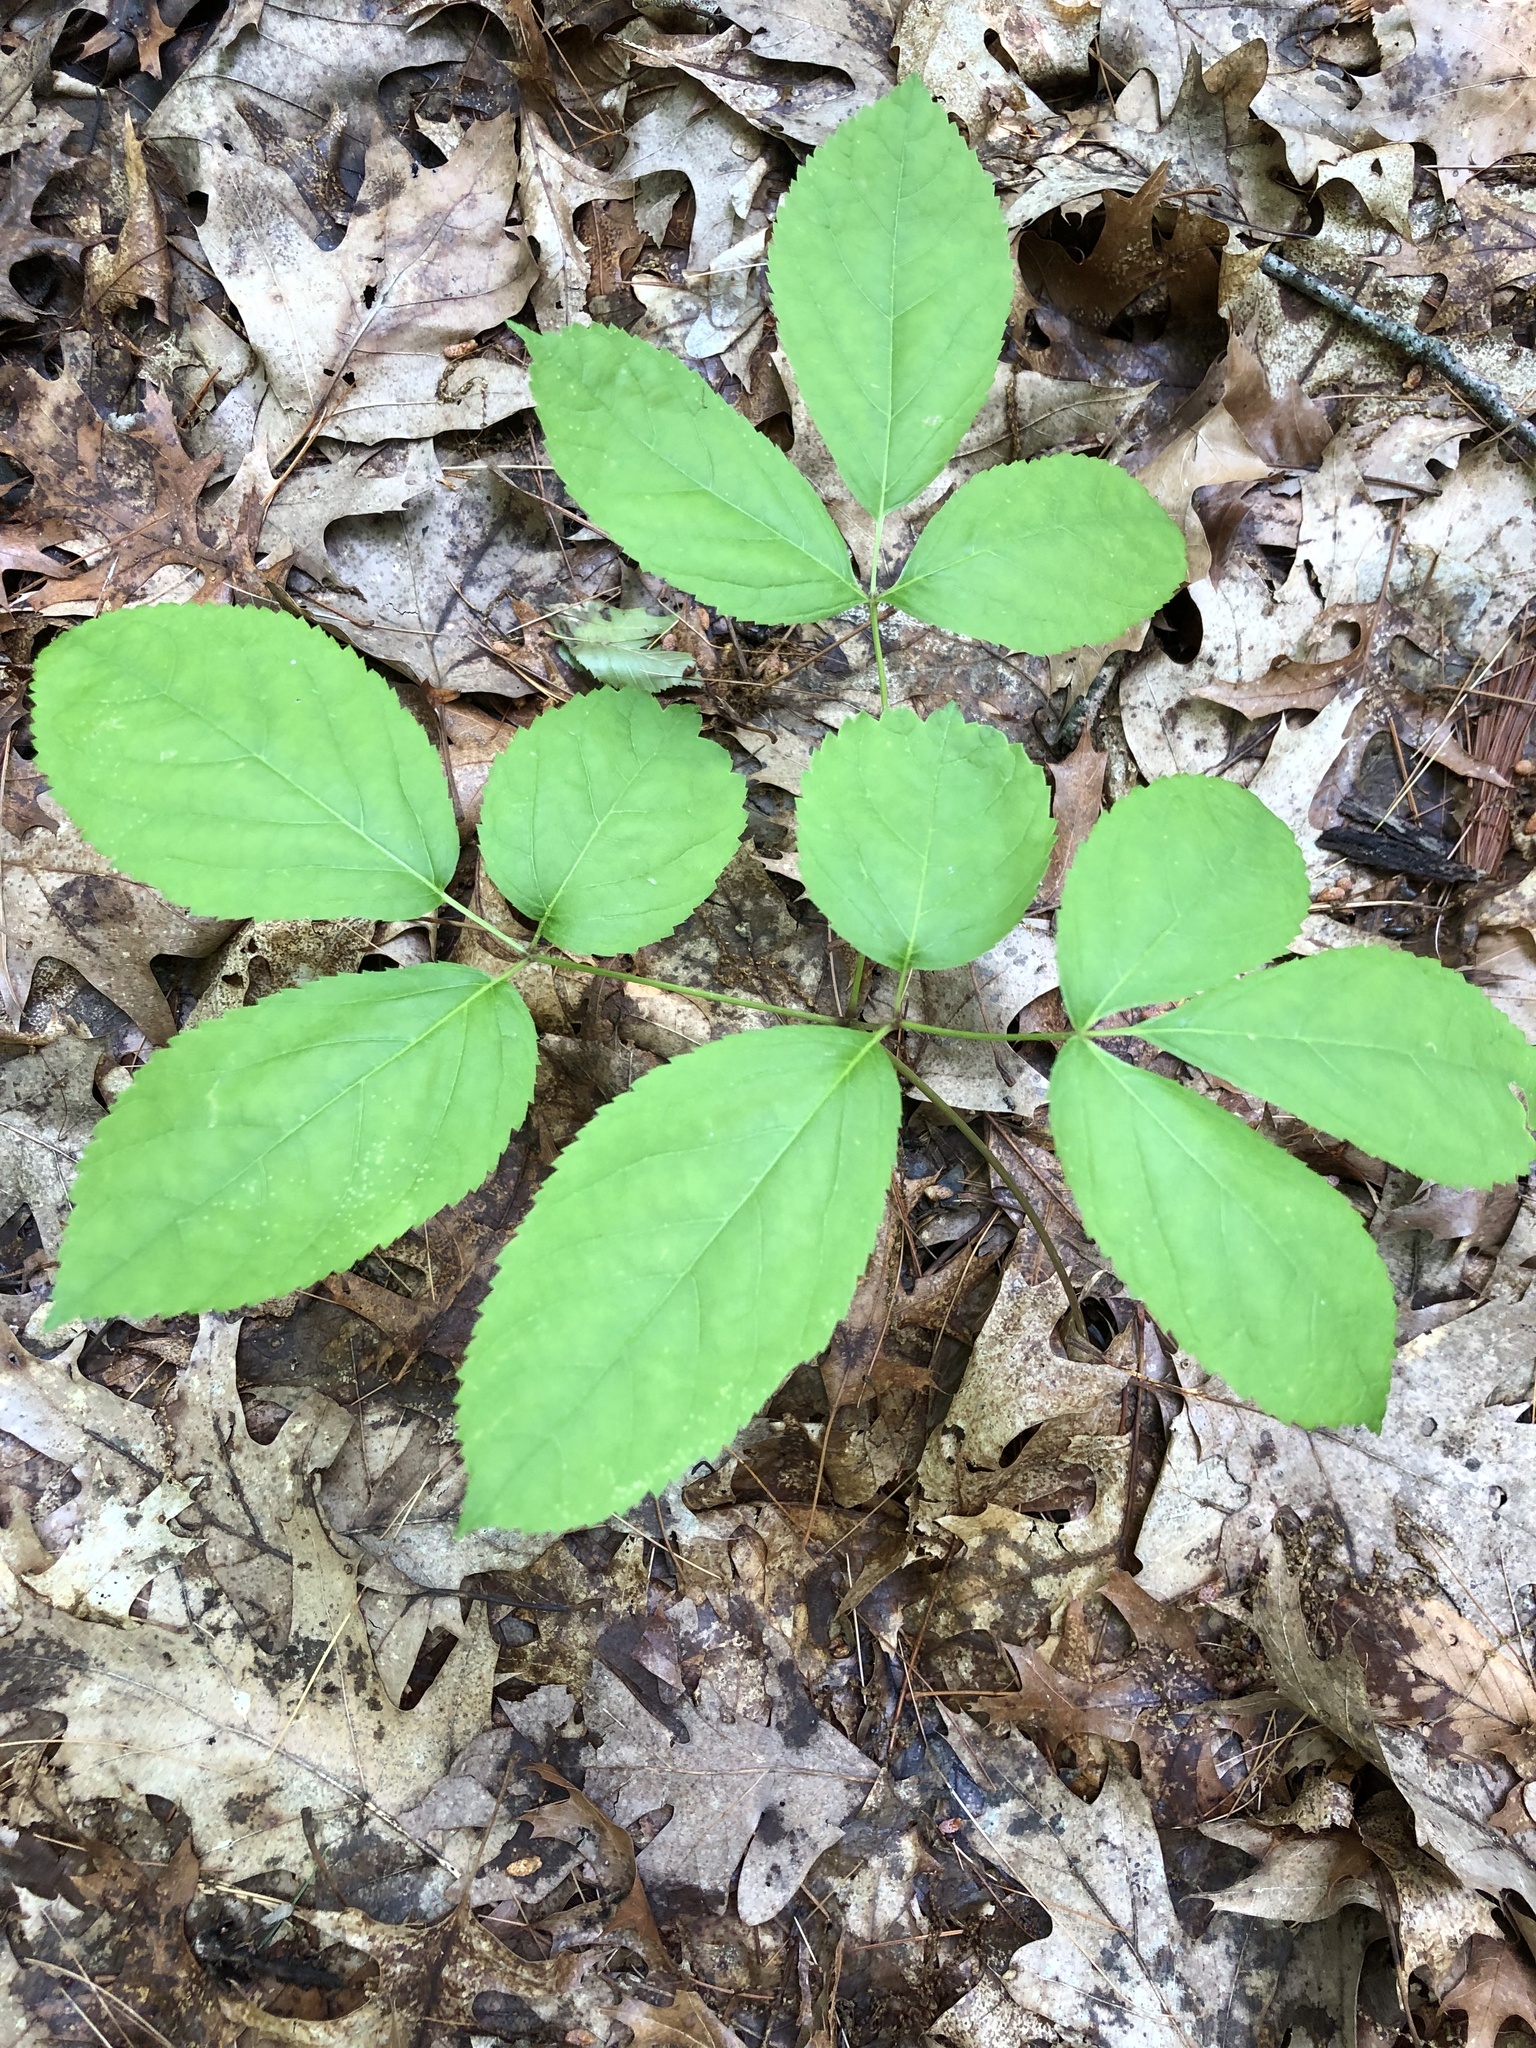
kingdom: Plantae
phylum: Tracheophyta
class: Magnoliopsida
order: Apiales
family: Araliaceae
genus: Aralia
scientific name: Aralia nudicaulis
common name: Wild sarsaparilla
